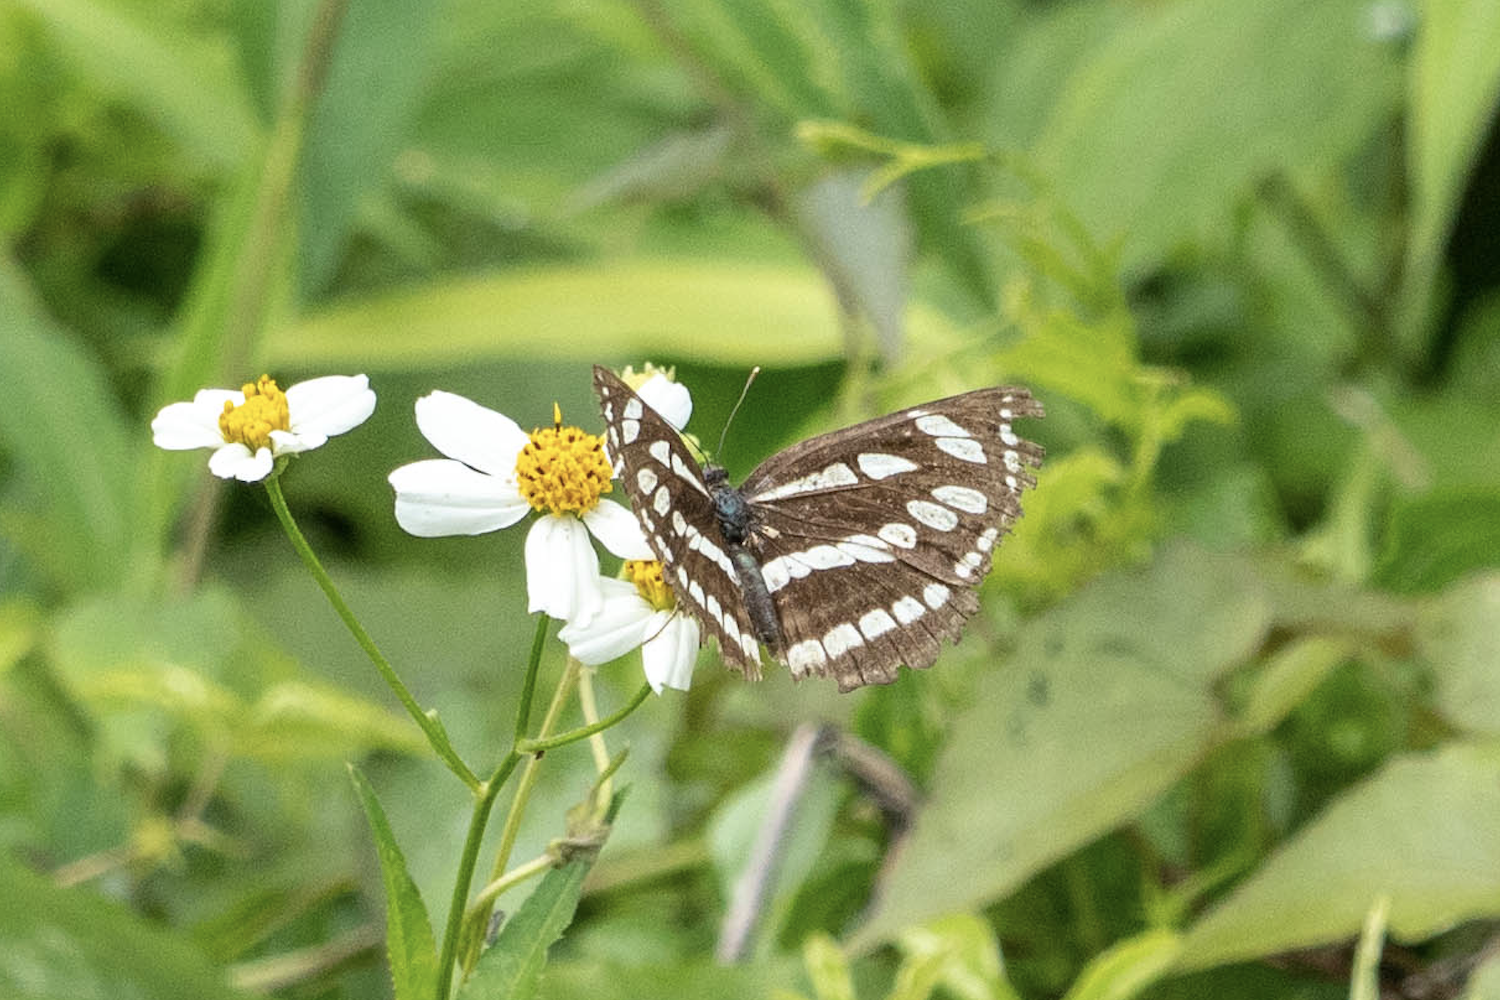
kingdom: Animalia
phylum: Arthropoda
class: Insecta
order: Lepidoptera
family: Nymphalidae
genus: Neptis
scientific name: Neptis hylas
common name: Common sailer
